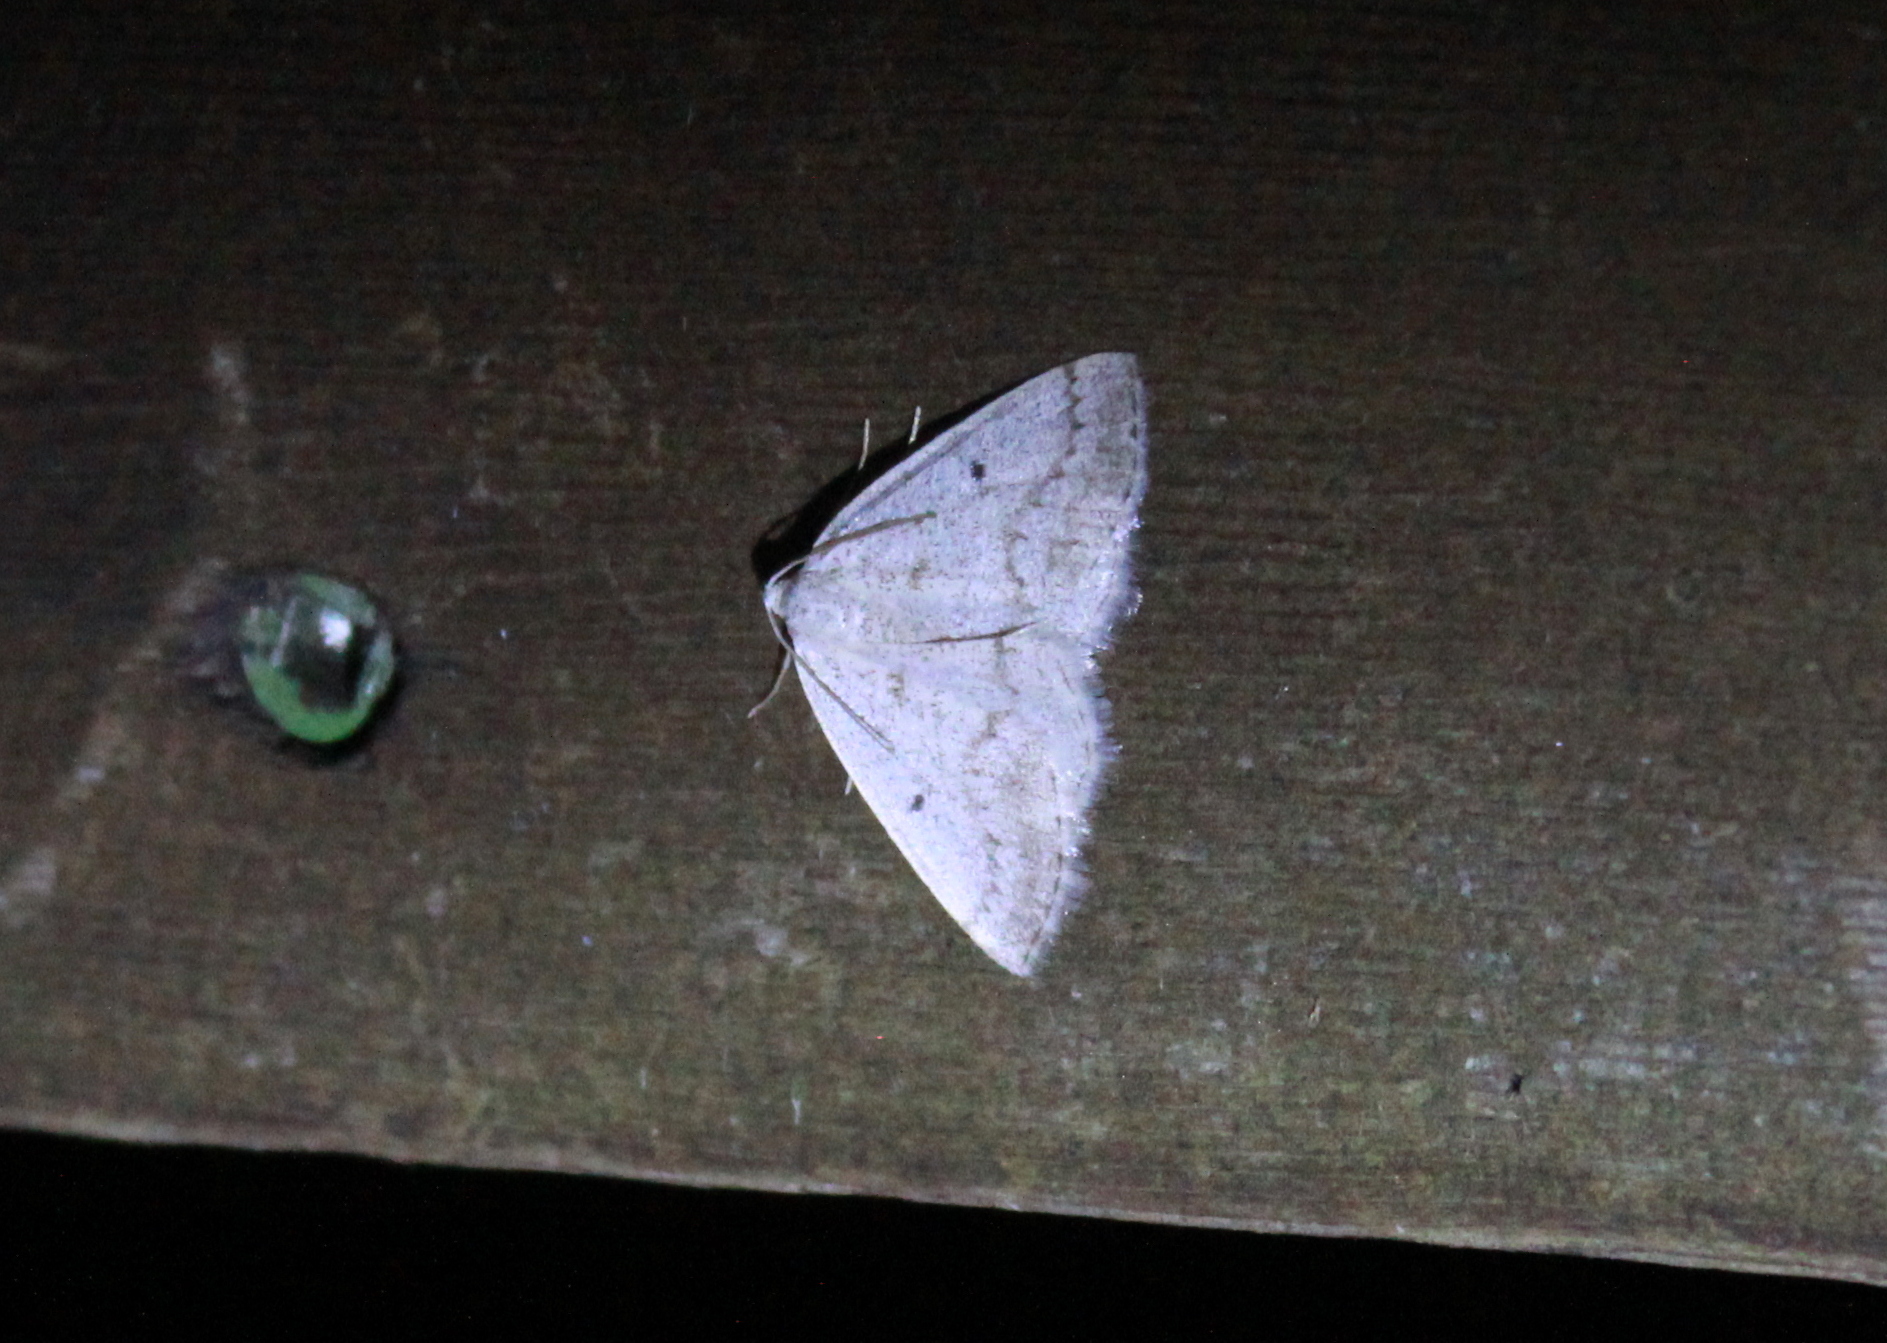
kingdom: Animalia
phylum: Arthropoda
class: Insecta
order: Lepidoptera
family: Geometridae
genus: Lomographa
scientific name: Lomographa glomeraria
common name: Gray spring moth
